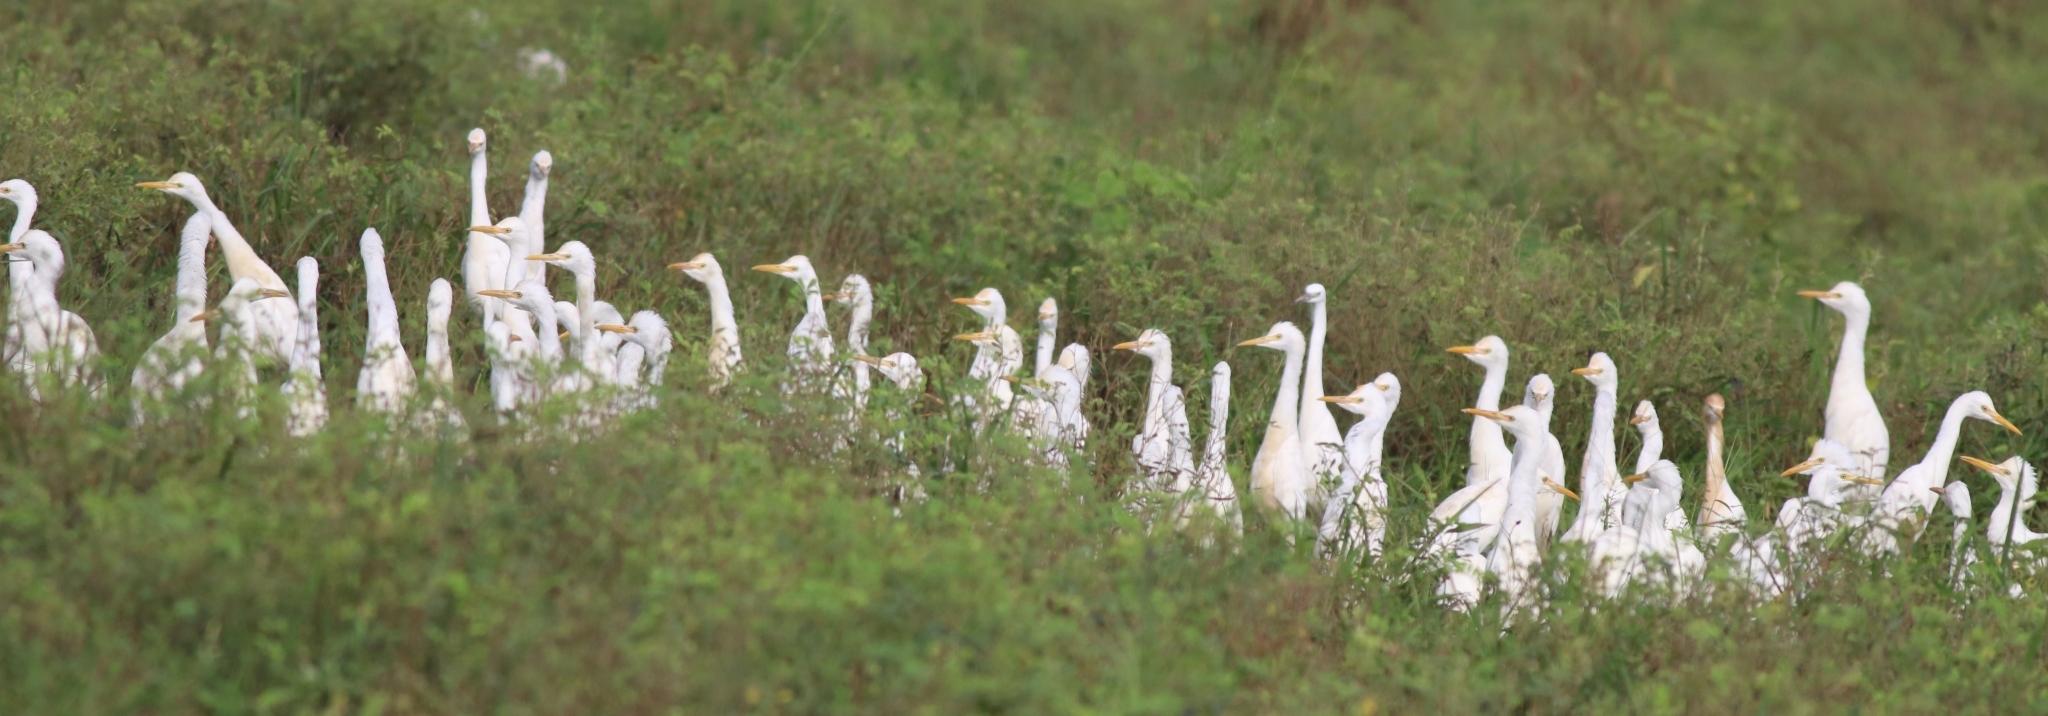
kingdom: Animalia
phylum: Chordata
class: Aves
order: Pelecaniformes
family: Ardeidae
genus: Bubulcus
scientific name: Bubulcus coromandus
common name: Eastern cattle egret
